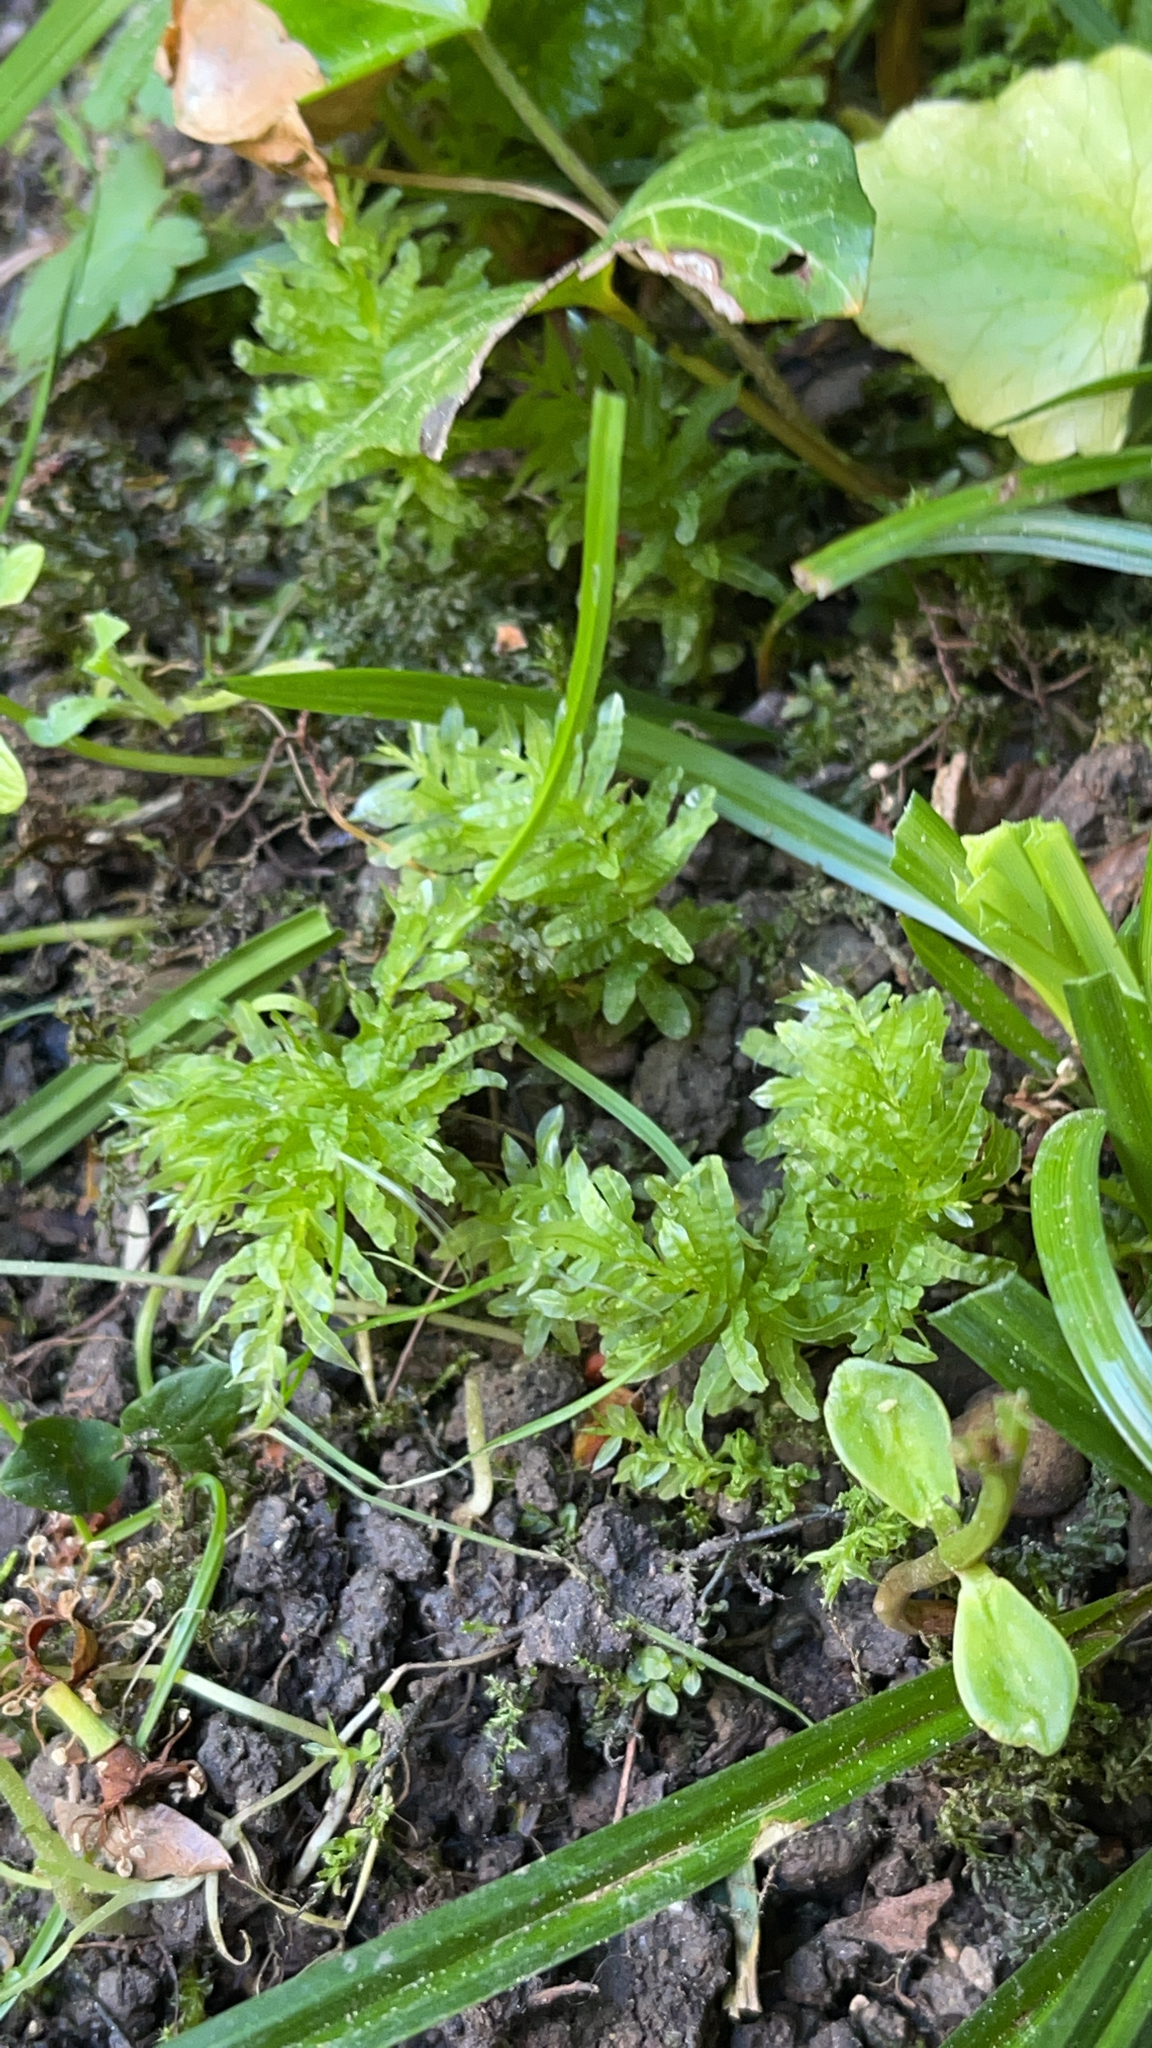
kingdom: Plantae
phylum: Bryophyta
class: Bryopsida
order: Bryales
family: Mniaceae
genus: Plagiomnium
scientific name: Plagiomnium undulatum
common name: Hart's-tongue thyme-moss
